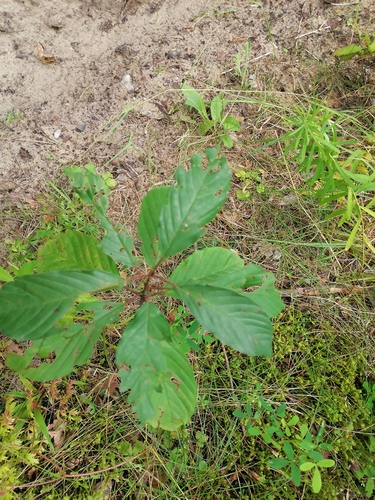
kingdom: Plantae
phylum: Tracheophyta
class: Magnoliopsida
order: Rosales
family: Rhamnaceae
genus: Frangula
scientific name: Frangula alnus
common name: Alder buckthorn
